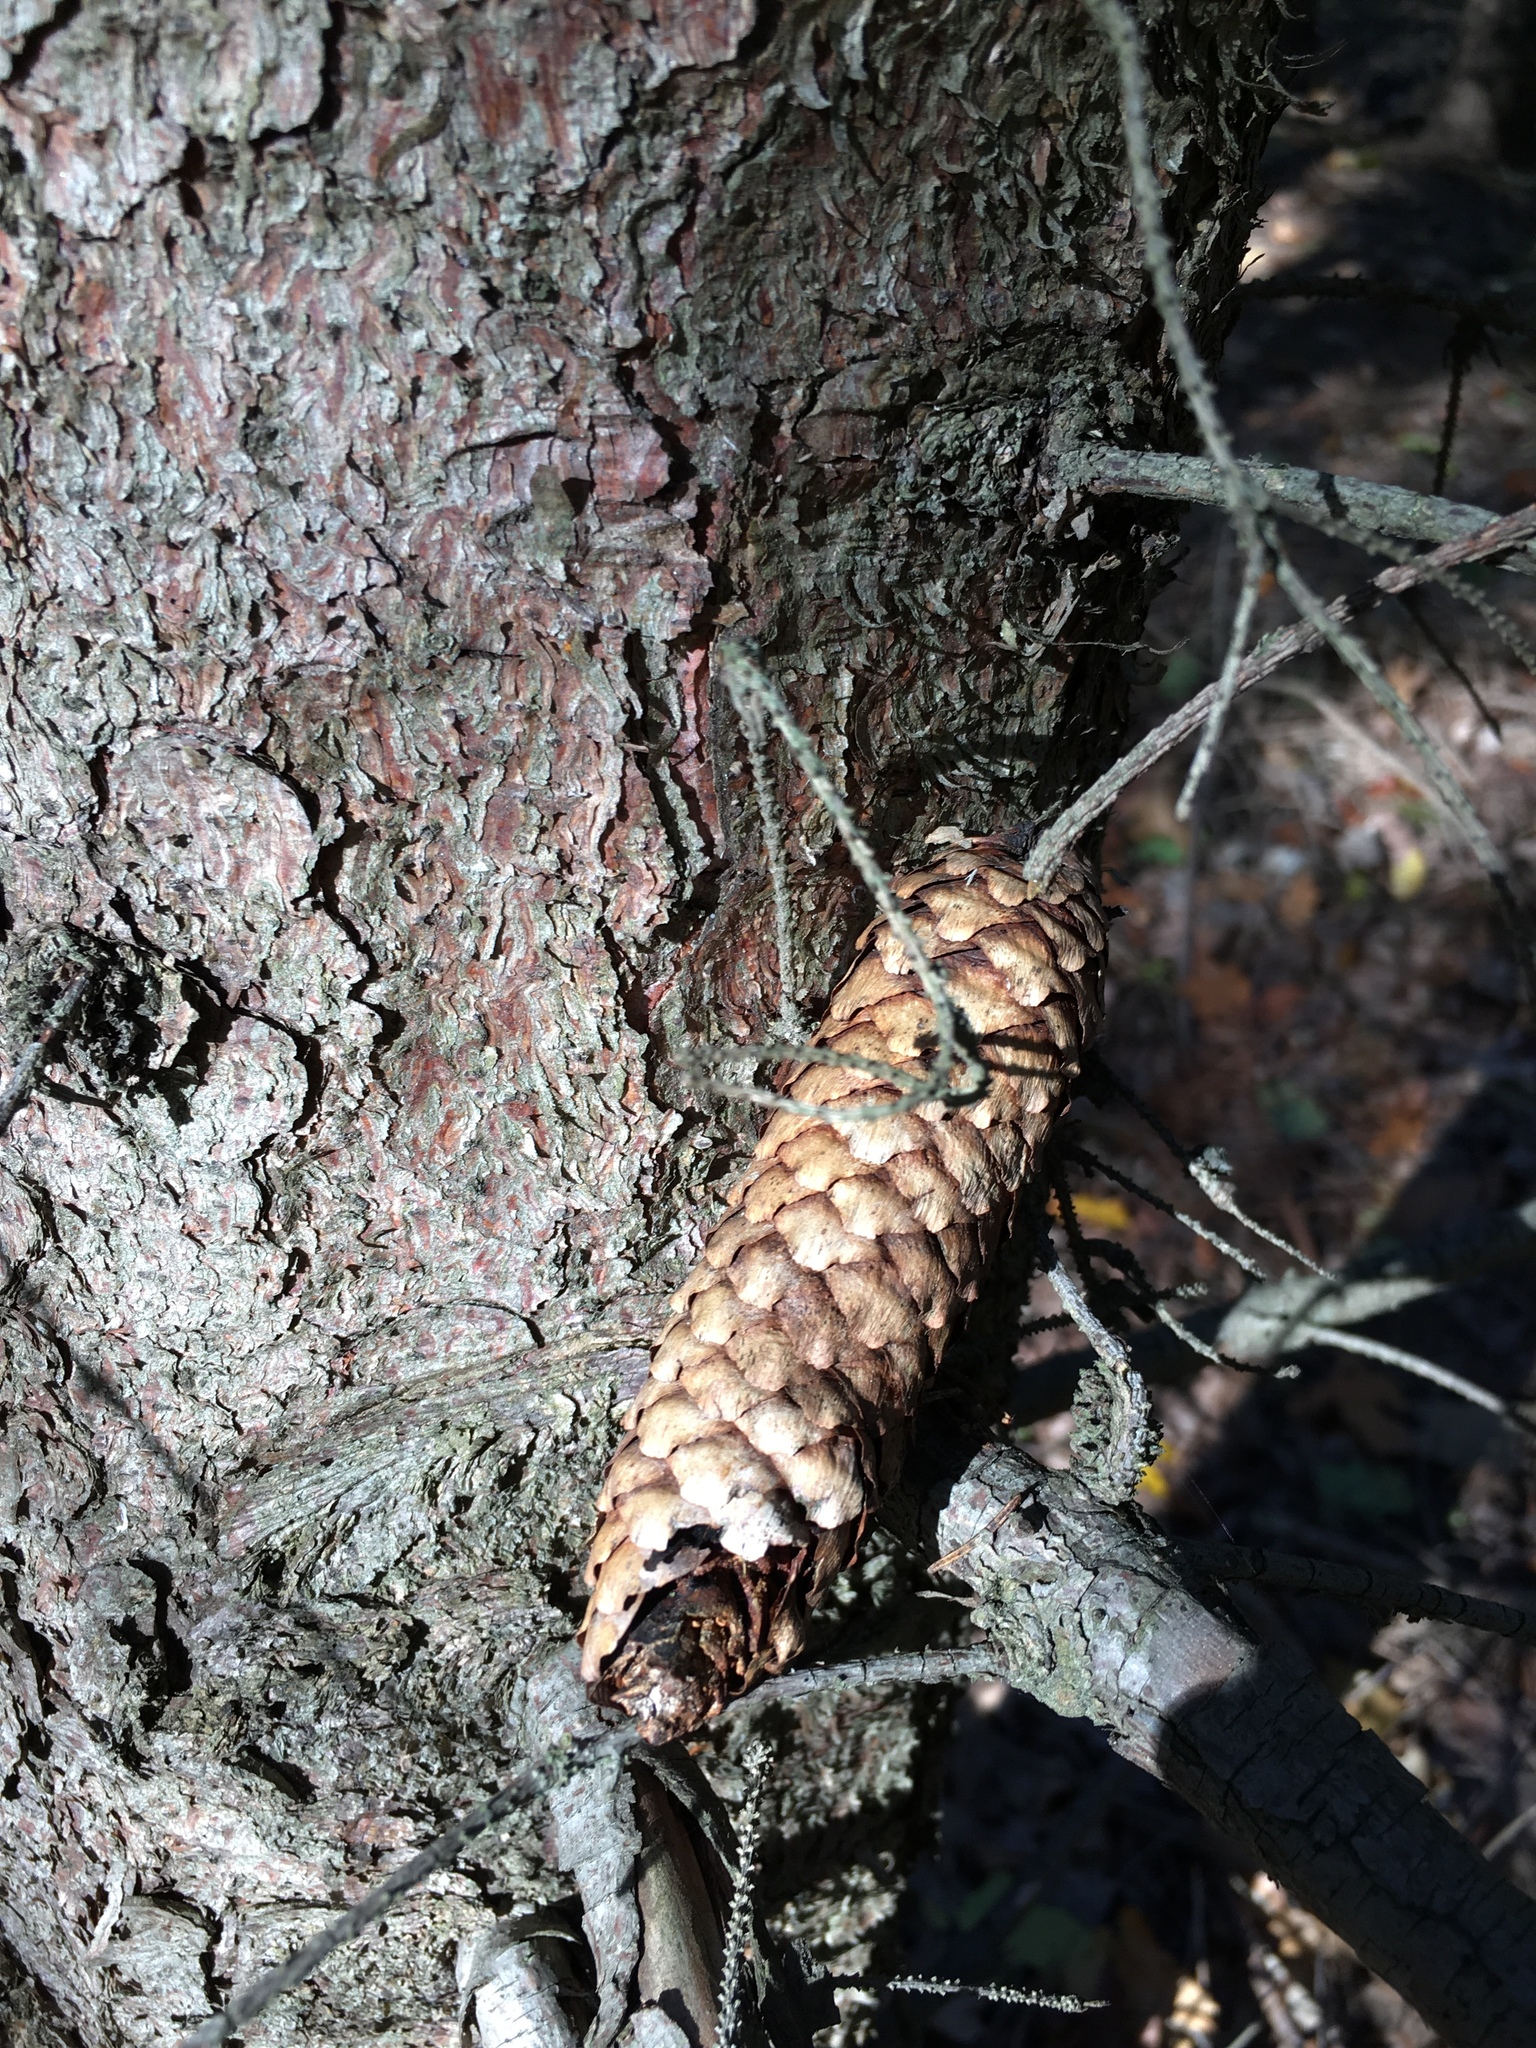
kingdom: Plantae
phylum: Tracheophyta
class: Pinopsida
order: Pinales
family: Pinaceae
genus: Picea
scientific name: Picea abies
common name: Norway spruce
